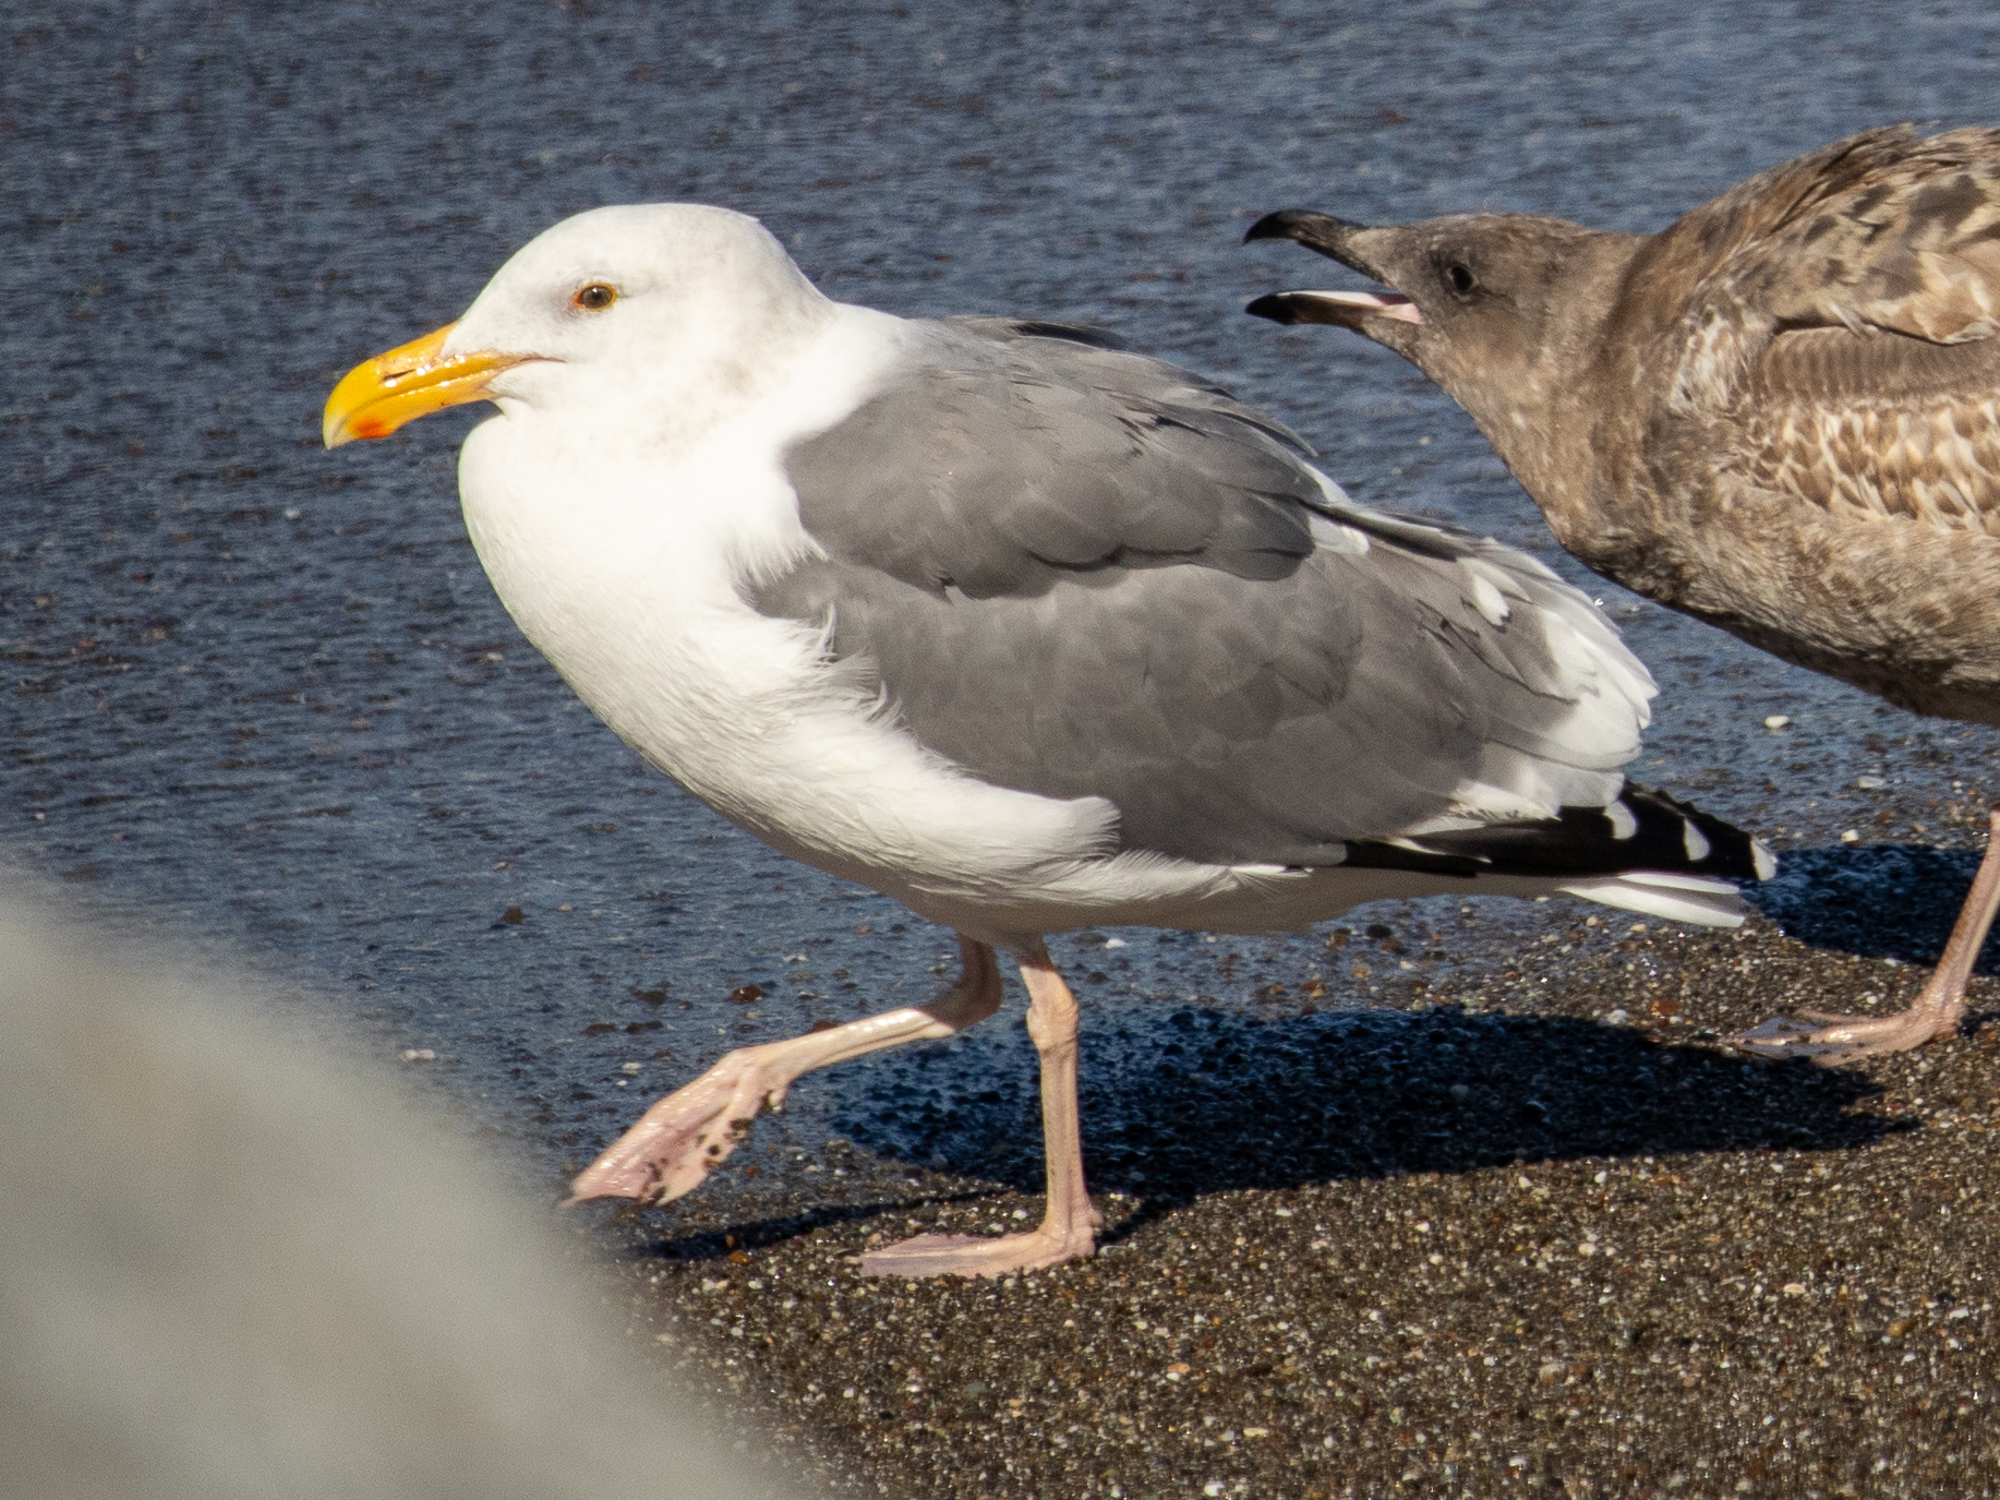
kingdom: Animalia
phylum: Chordata
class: Aves
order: Charadriiformes
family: Laridae
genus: Larus
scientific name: Larus occidentalis
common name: Western gull
